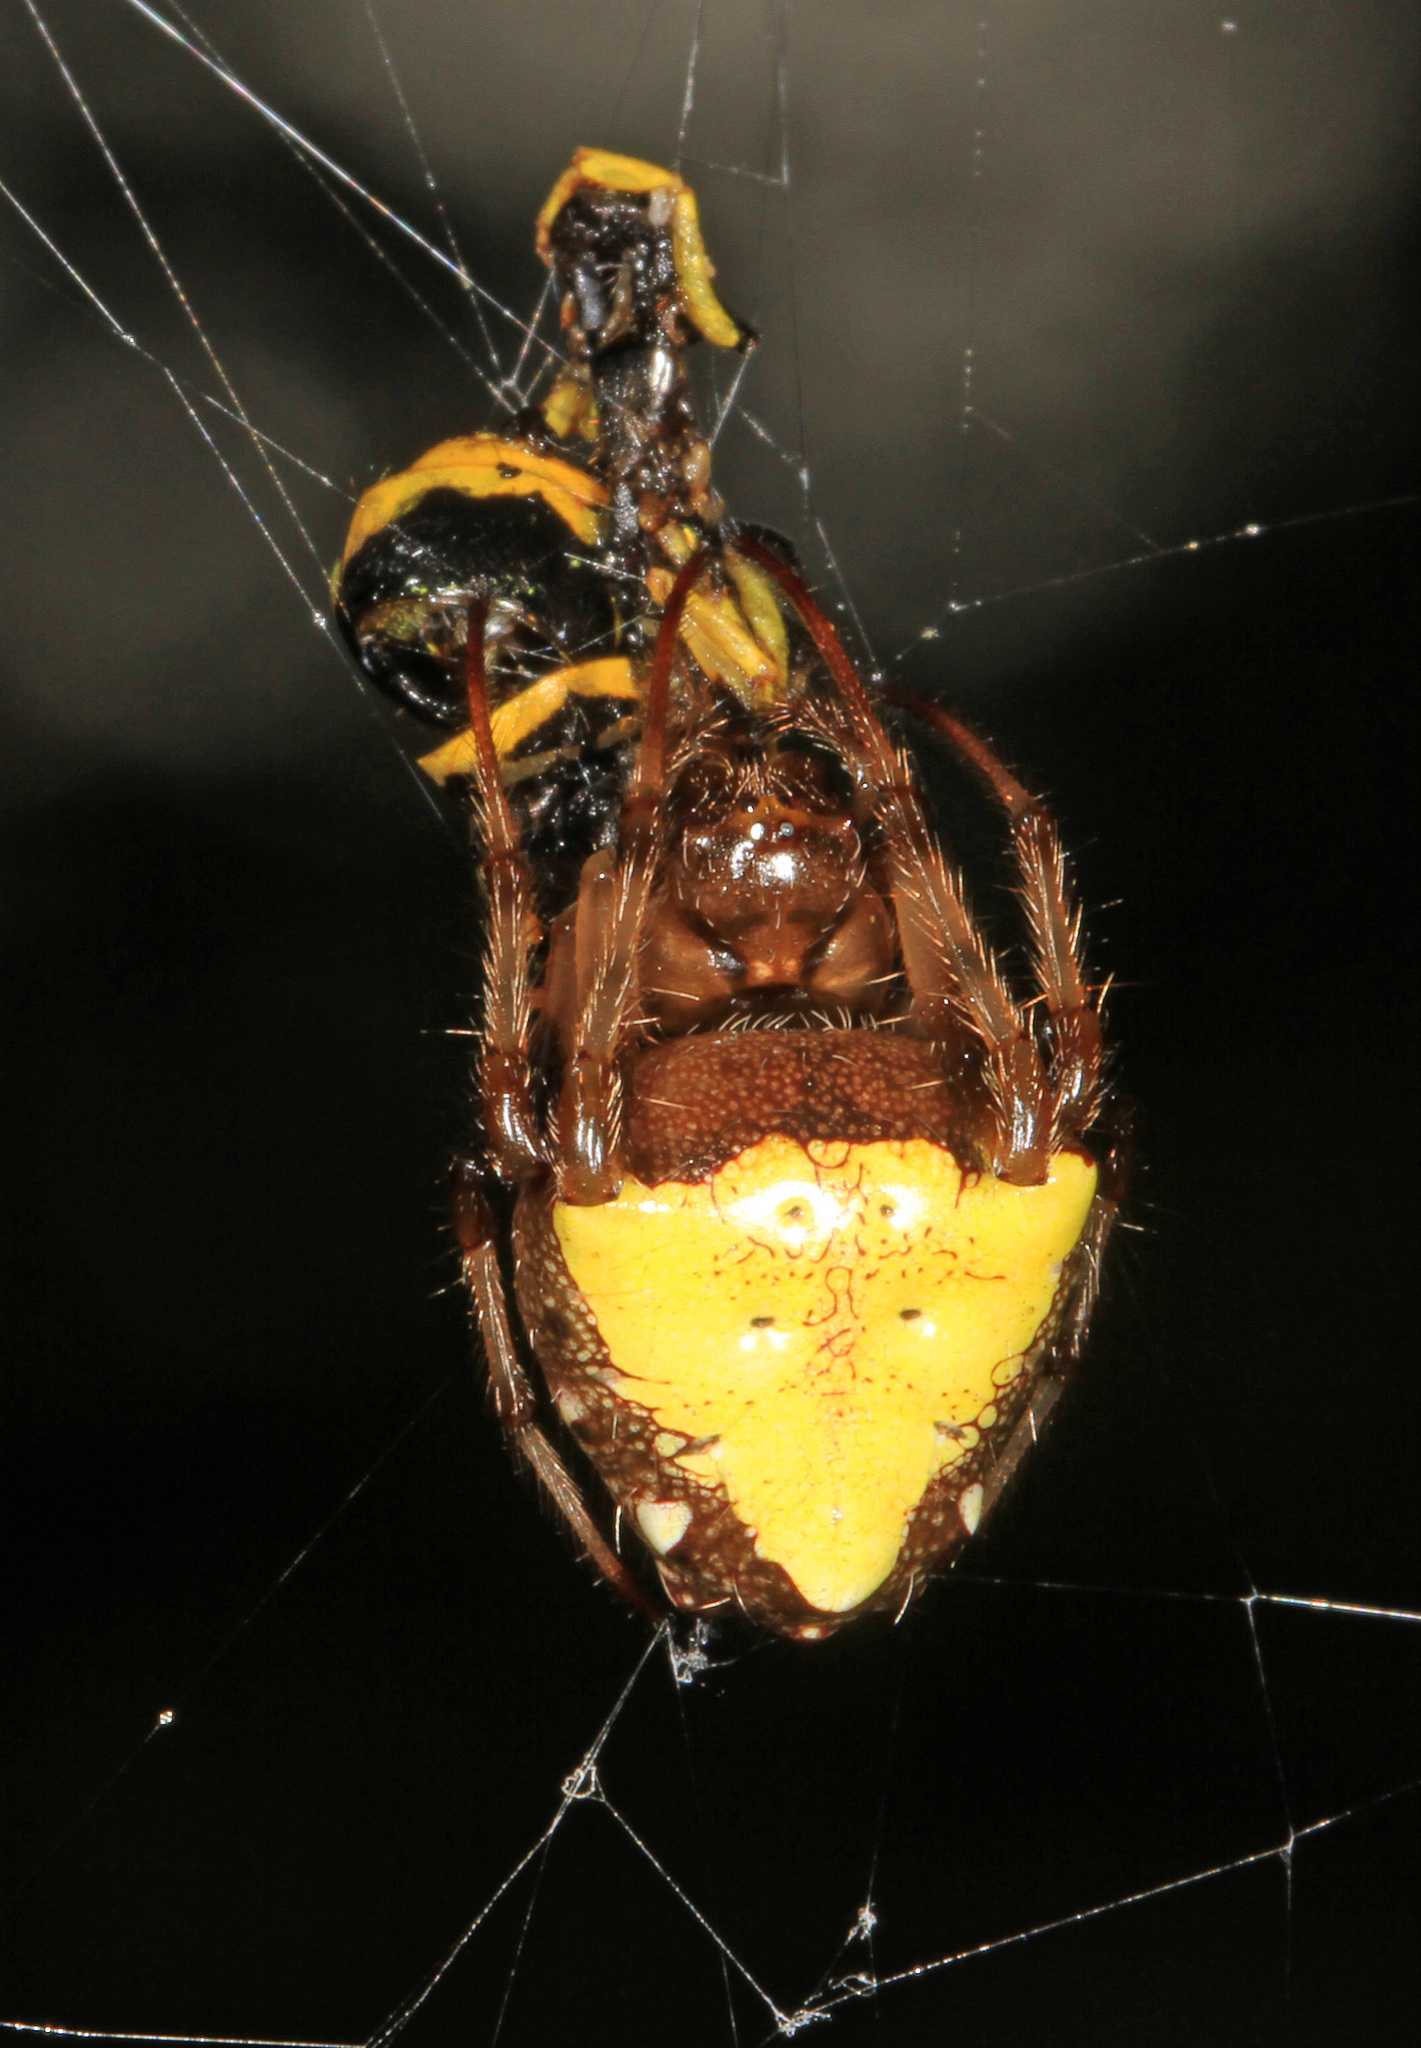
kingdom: Animalia
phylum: Arthropoda
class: Arachnida
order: Araneae
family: Araneidae
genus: Verrucosa
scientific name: Verrucosa arenata
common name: Orb weavers
